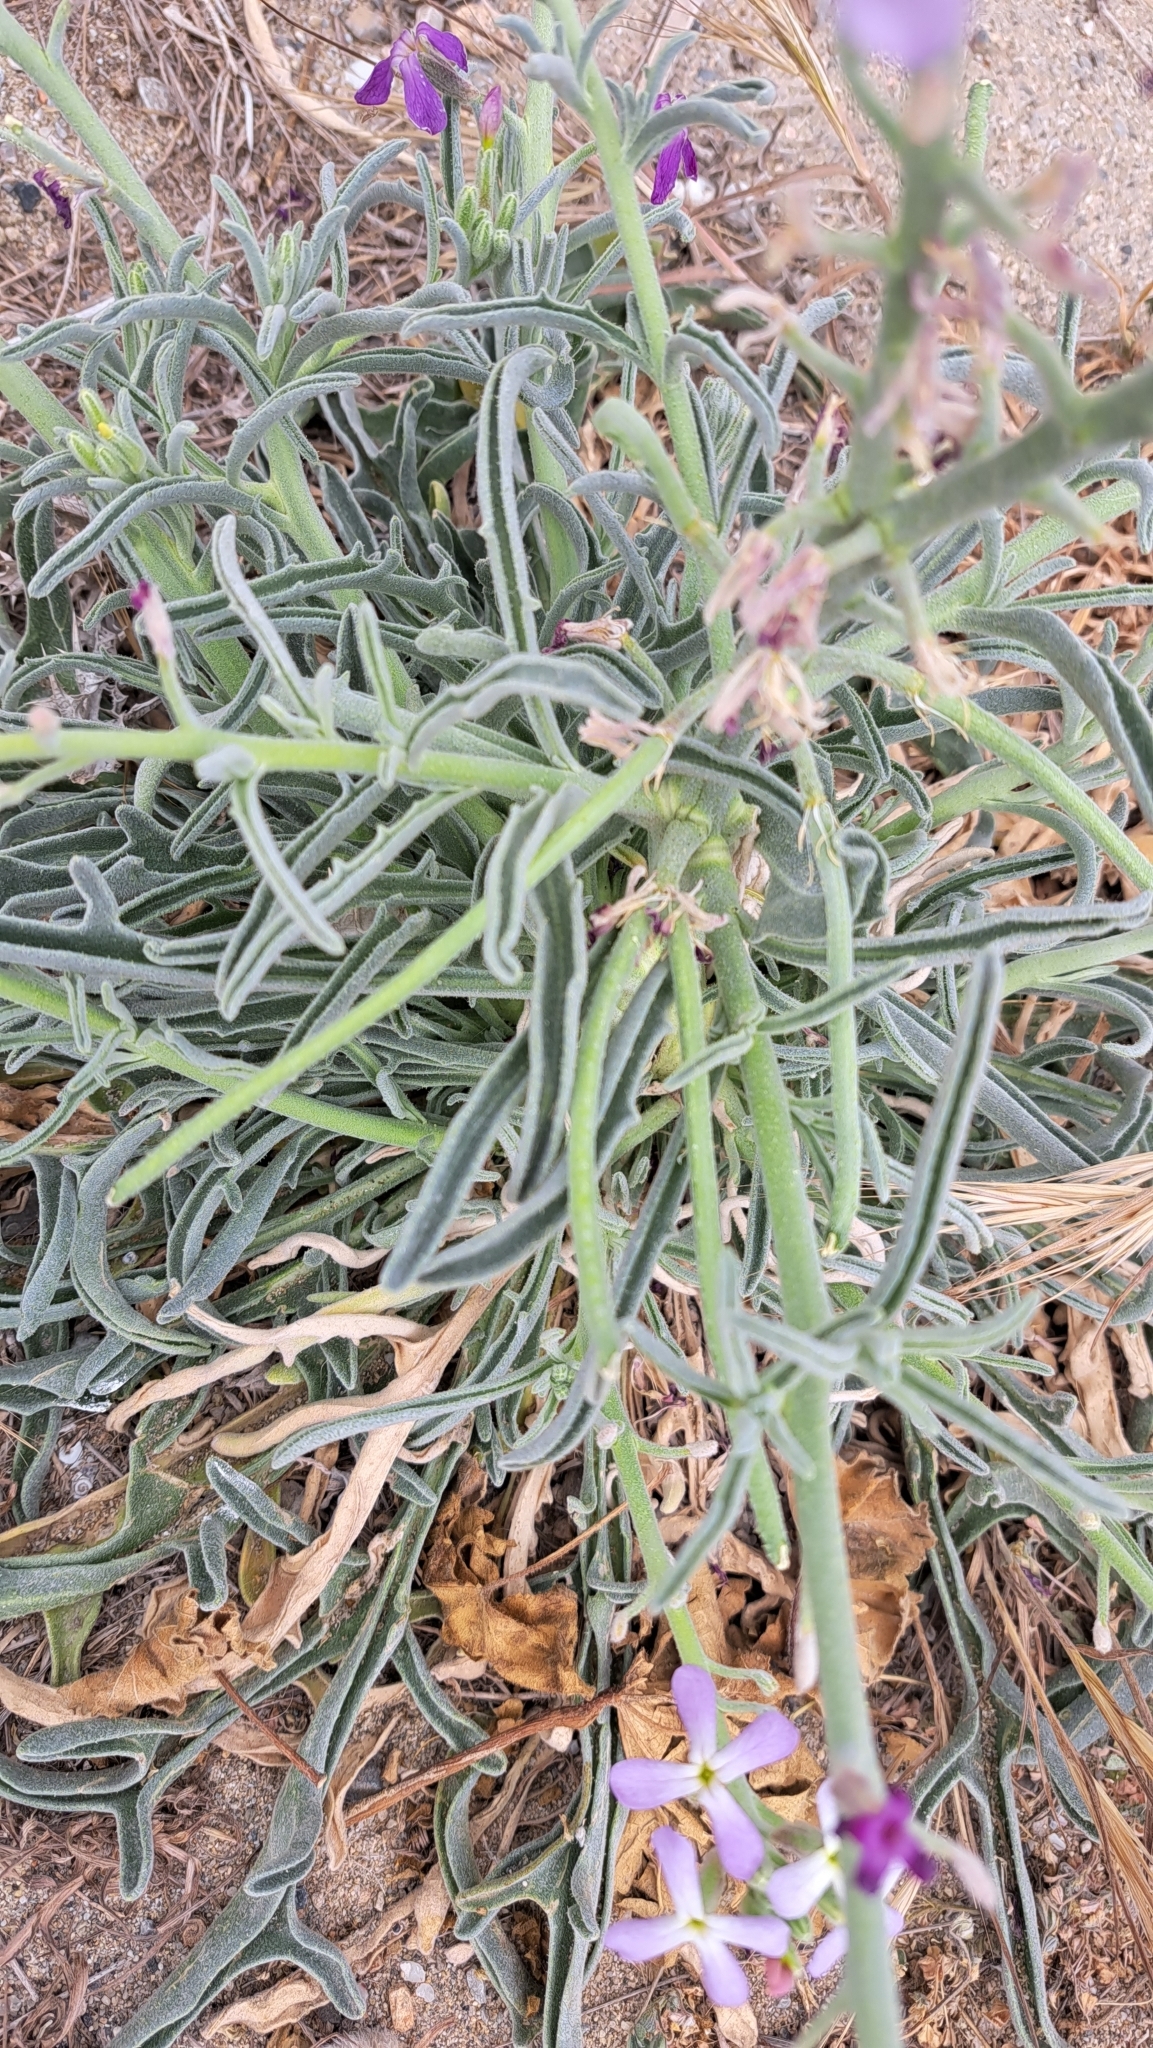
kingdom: Plantae
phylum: Tracheophyta
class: Magnoliopsida
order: Brassicales
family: Brassicaceae
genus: Matthiola
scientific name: Matthiola sinuata
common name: Sea stock
